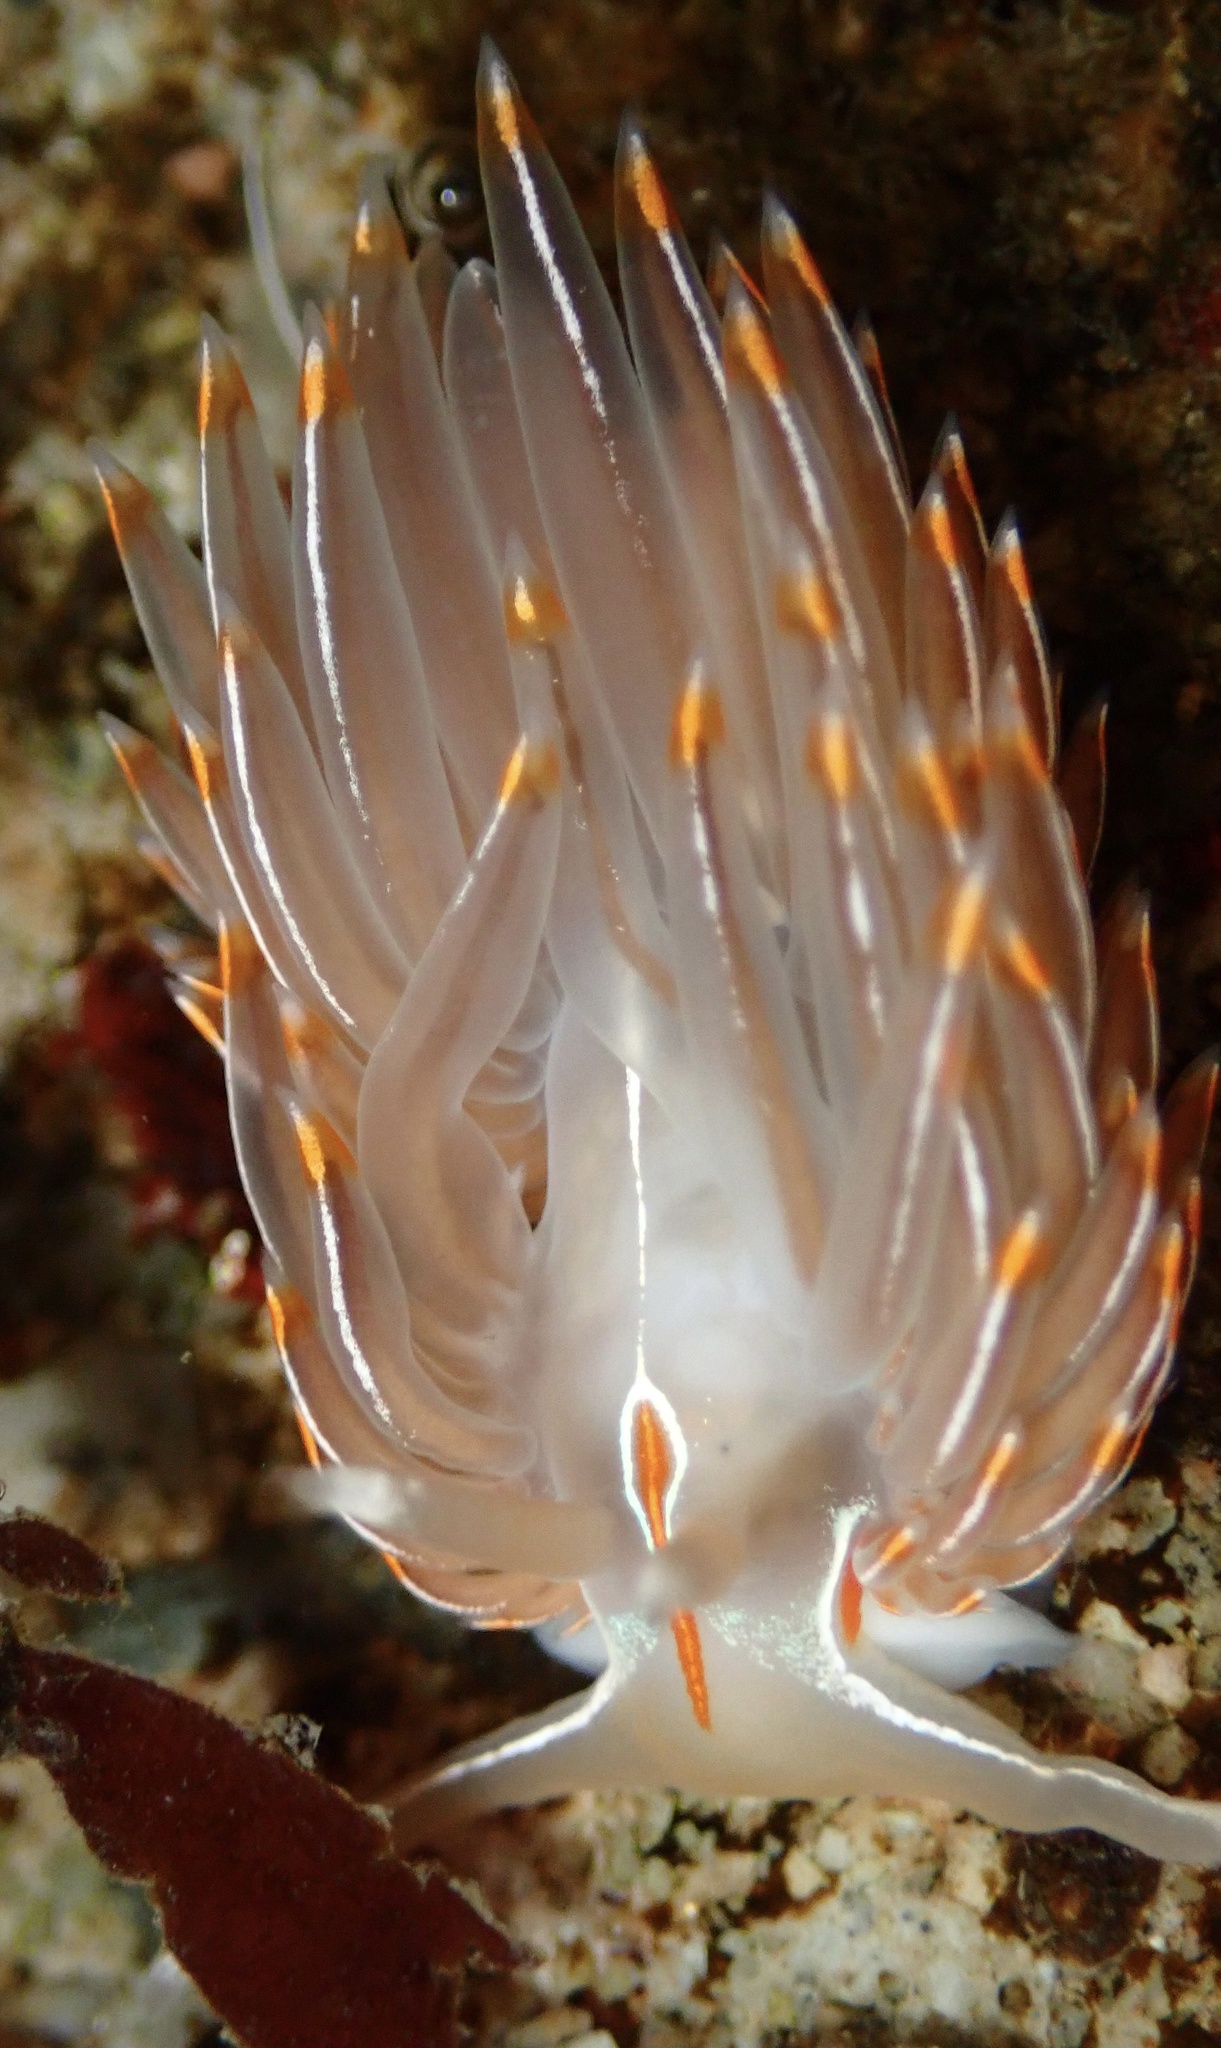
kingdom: Animalia
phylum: Mollusca
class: Gastropoda
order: Nudibranchia
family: Myrrhinidae
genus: Hermissenda
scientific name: Hermissenda crassicornis
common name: Hermissenda
